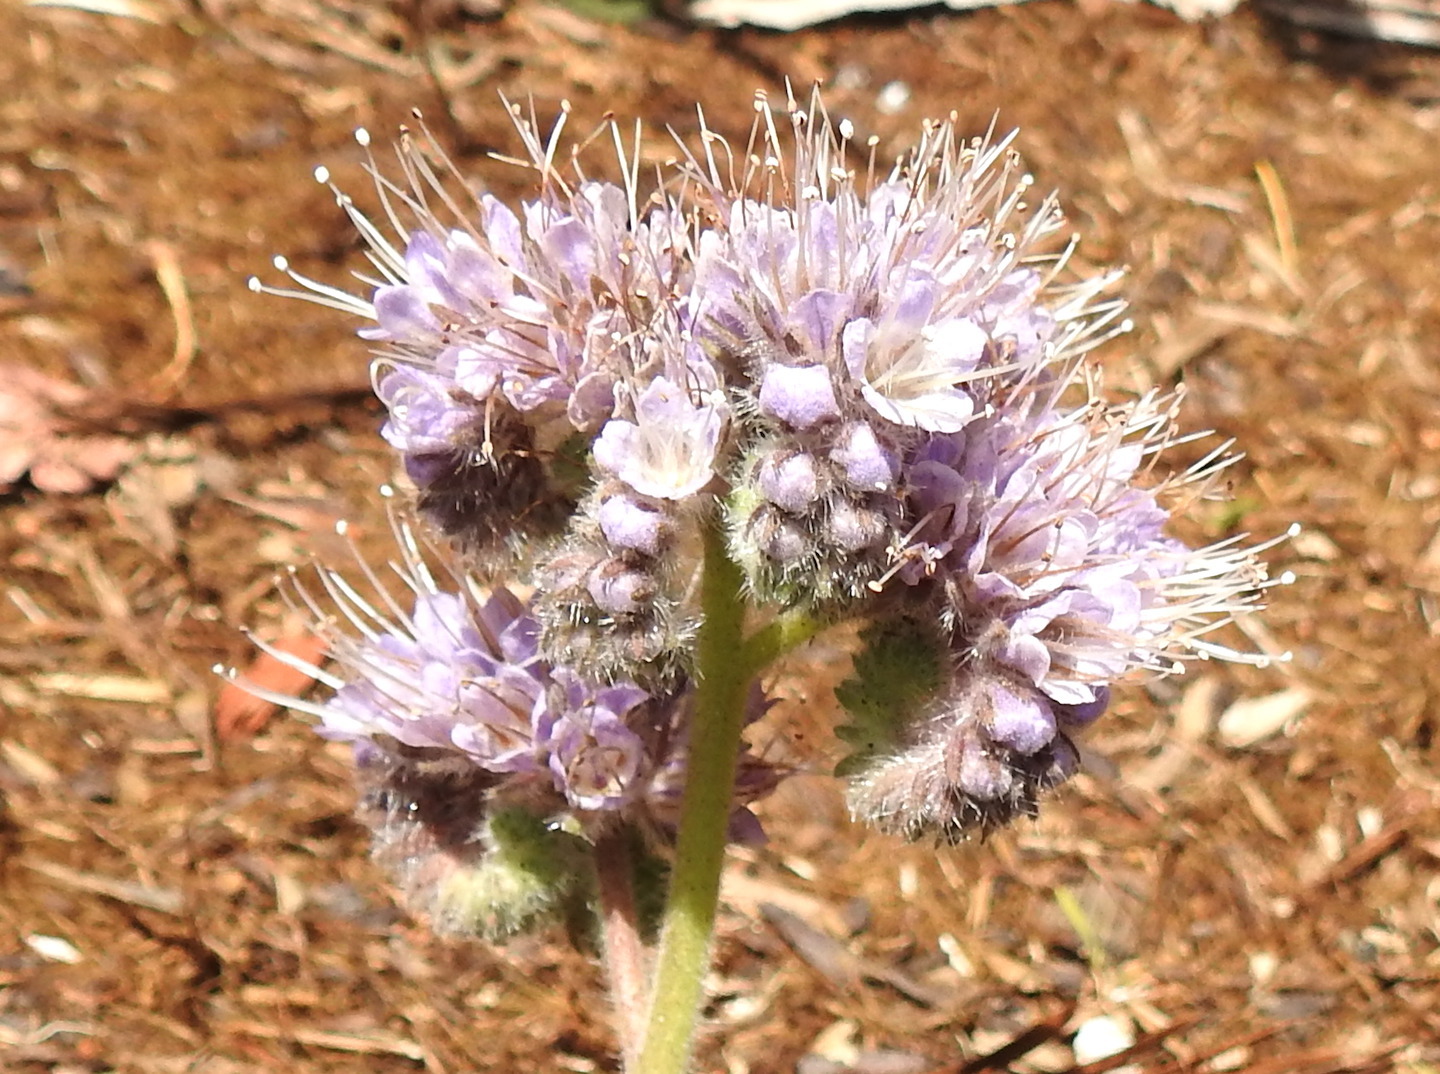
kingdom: Plantae
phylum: Tracheophyta
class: Magnoliopsida
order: Boraginales
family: Hydrophyllaceae
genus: Phacelia
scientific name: Phacelia californica
